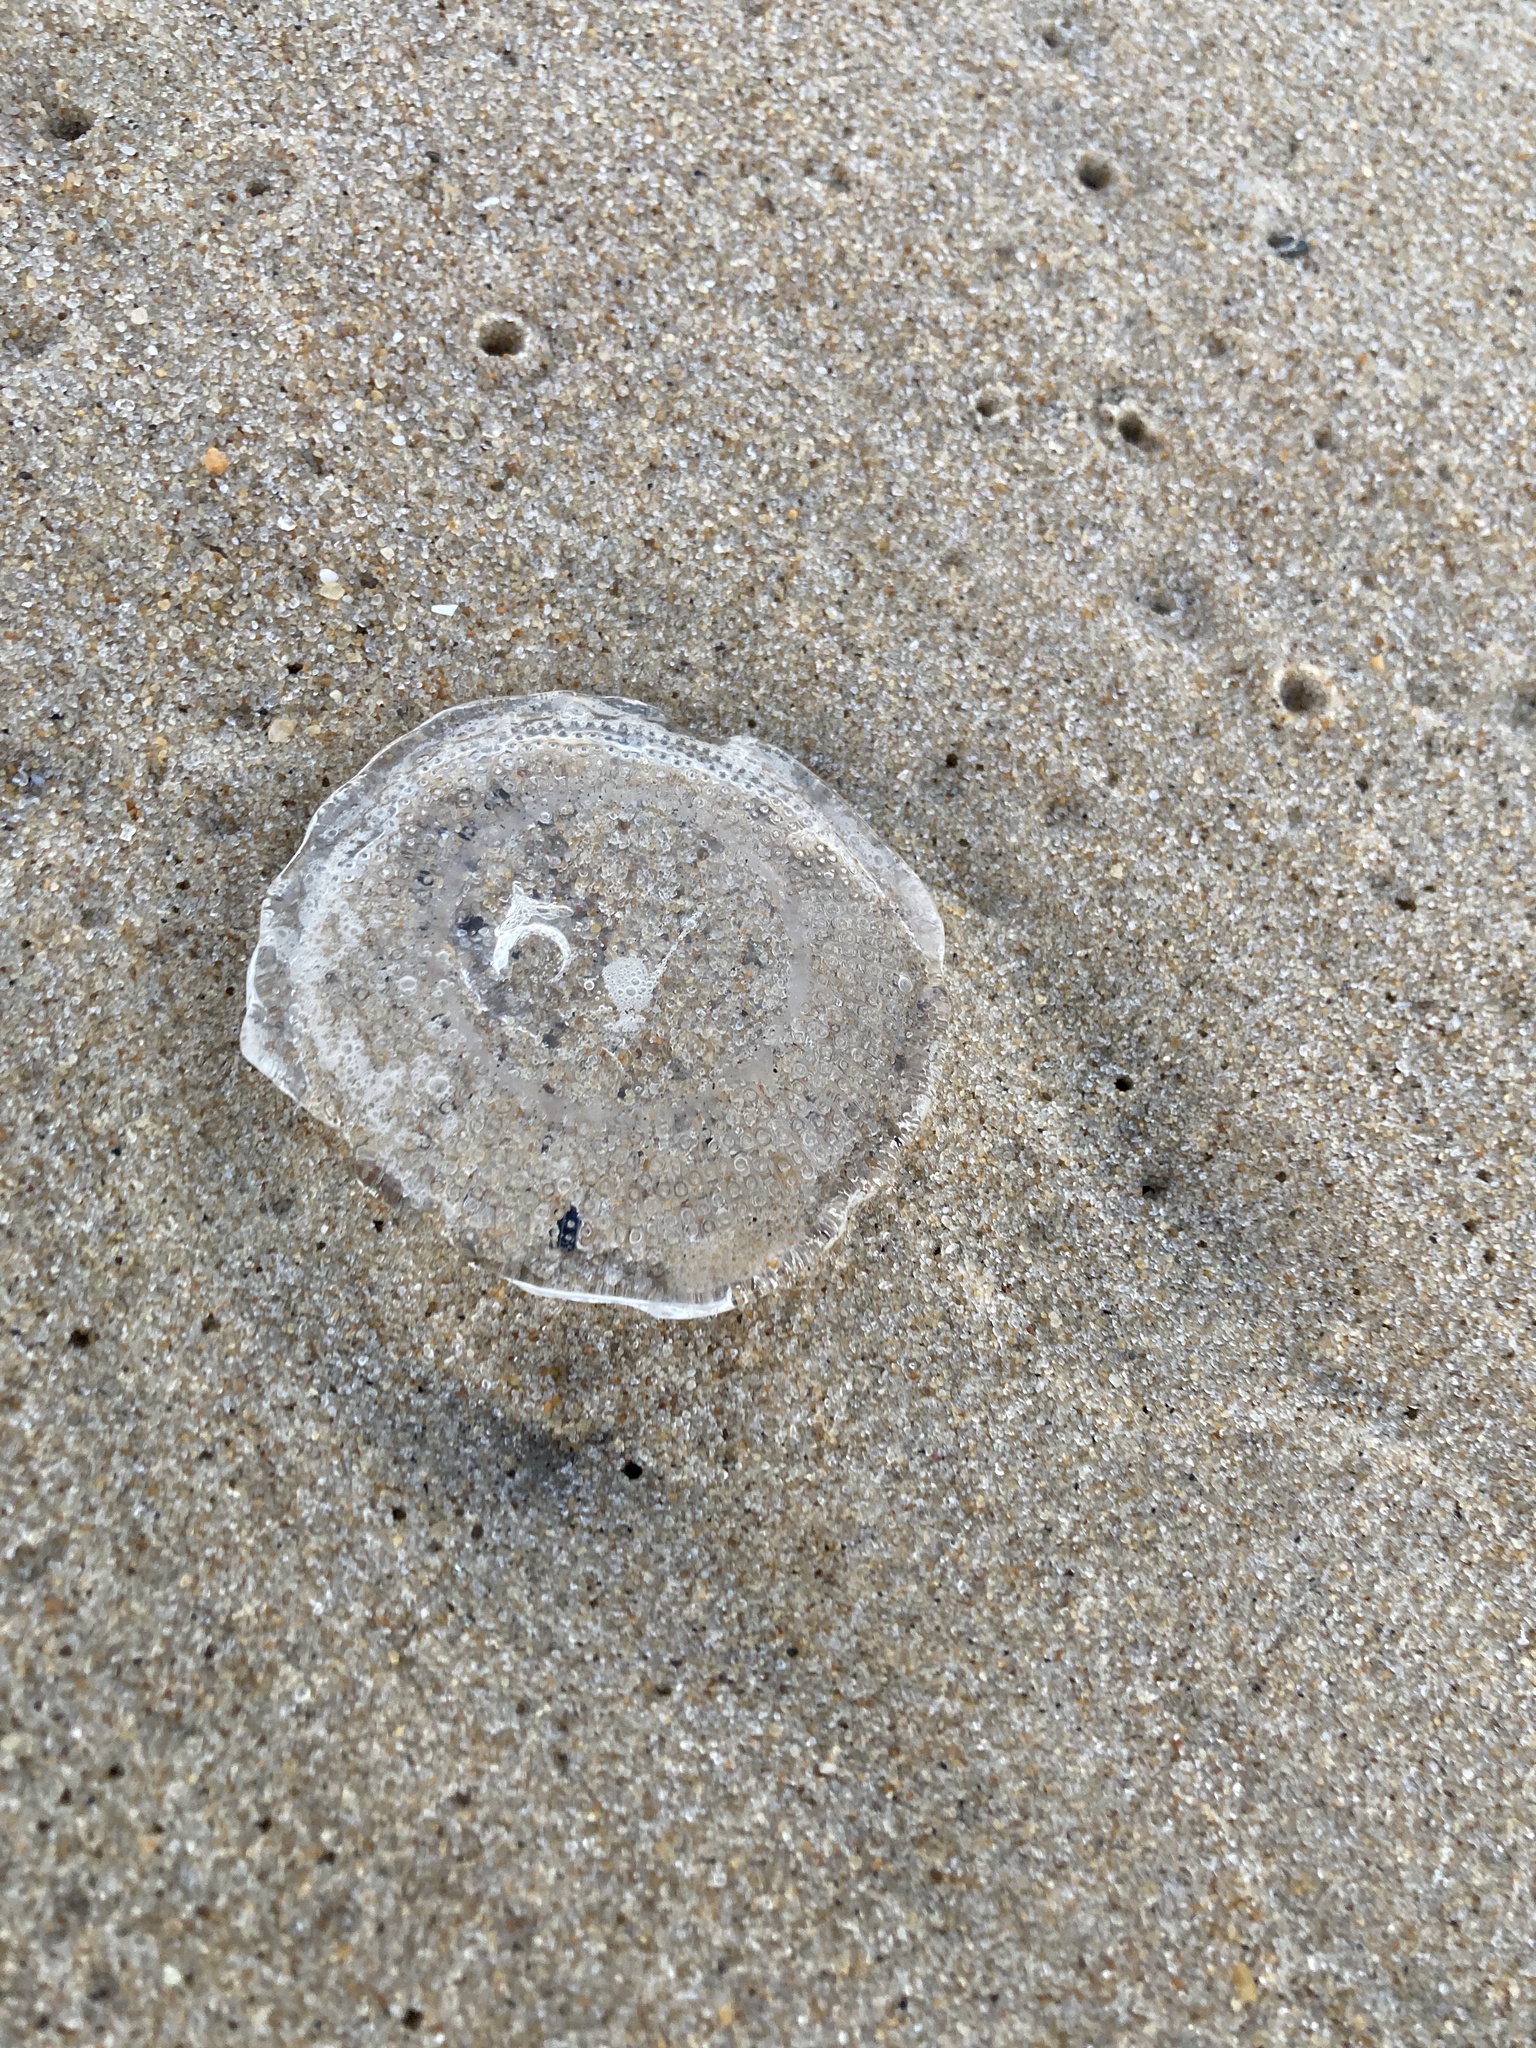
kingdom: Animalia
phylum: Cnidaria
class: Hydrozoa
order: Leptothecata
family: Aequoreidae
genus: Rhacostoma
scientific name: Rhacostoma atlanticum
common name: Lined water jelly
